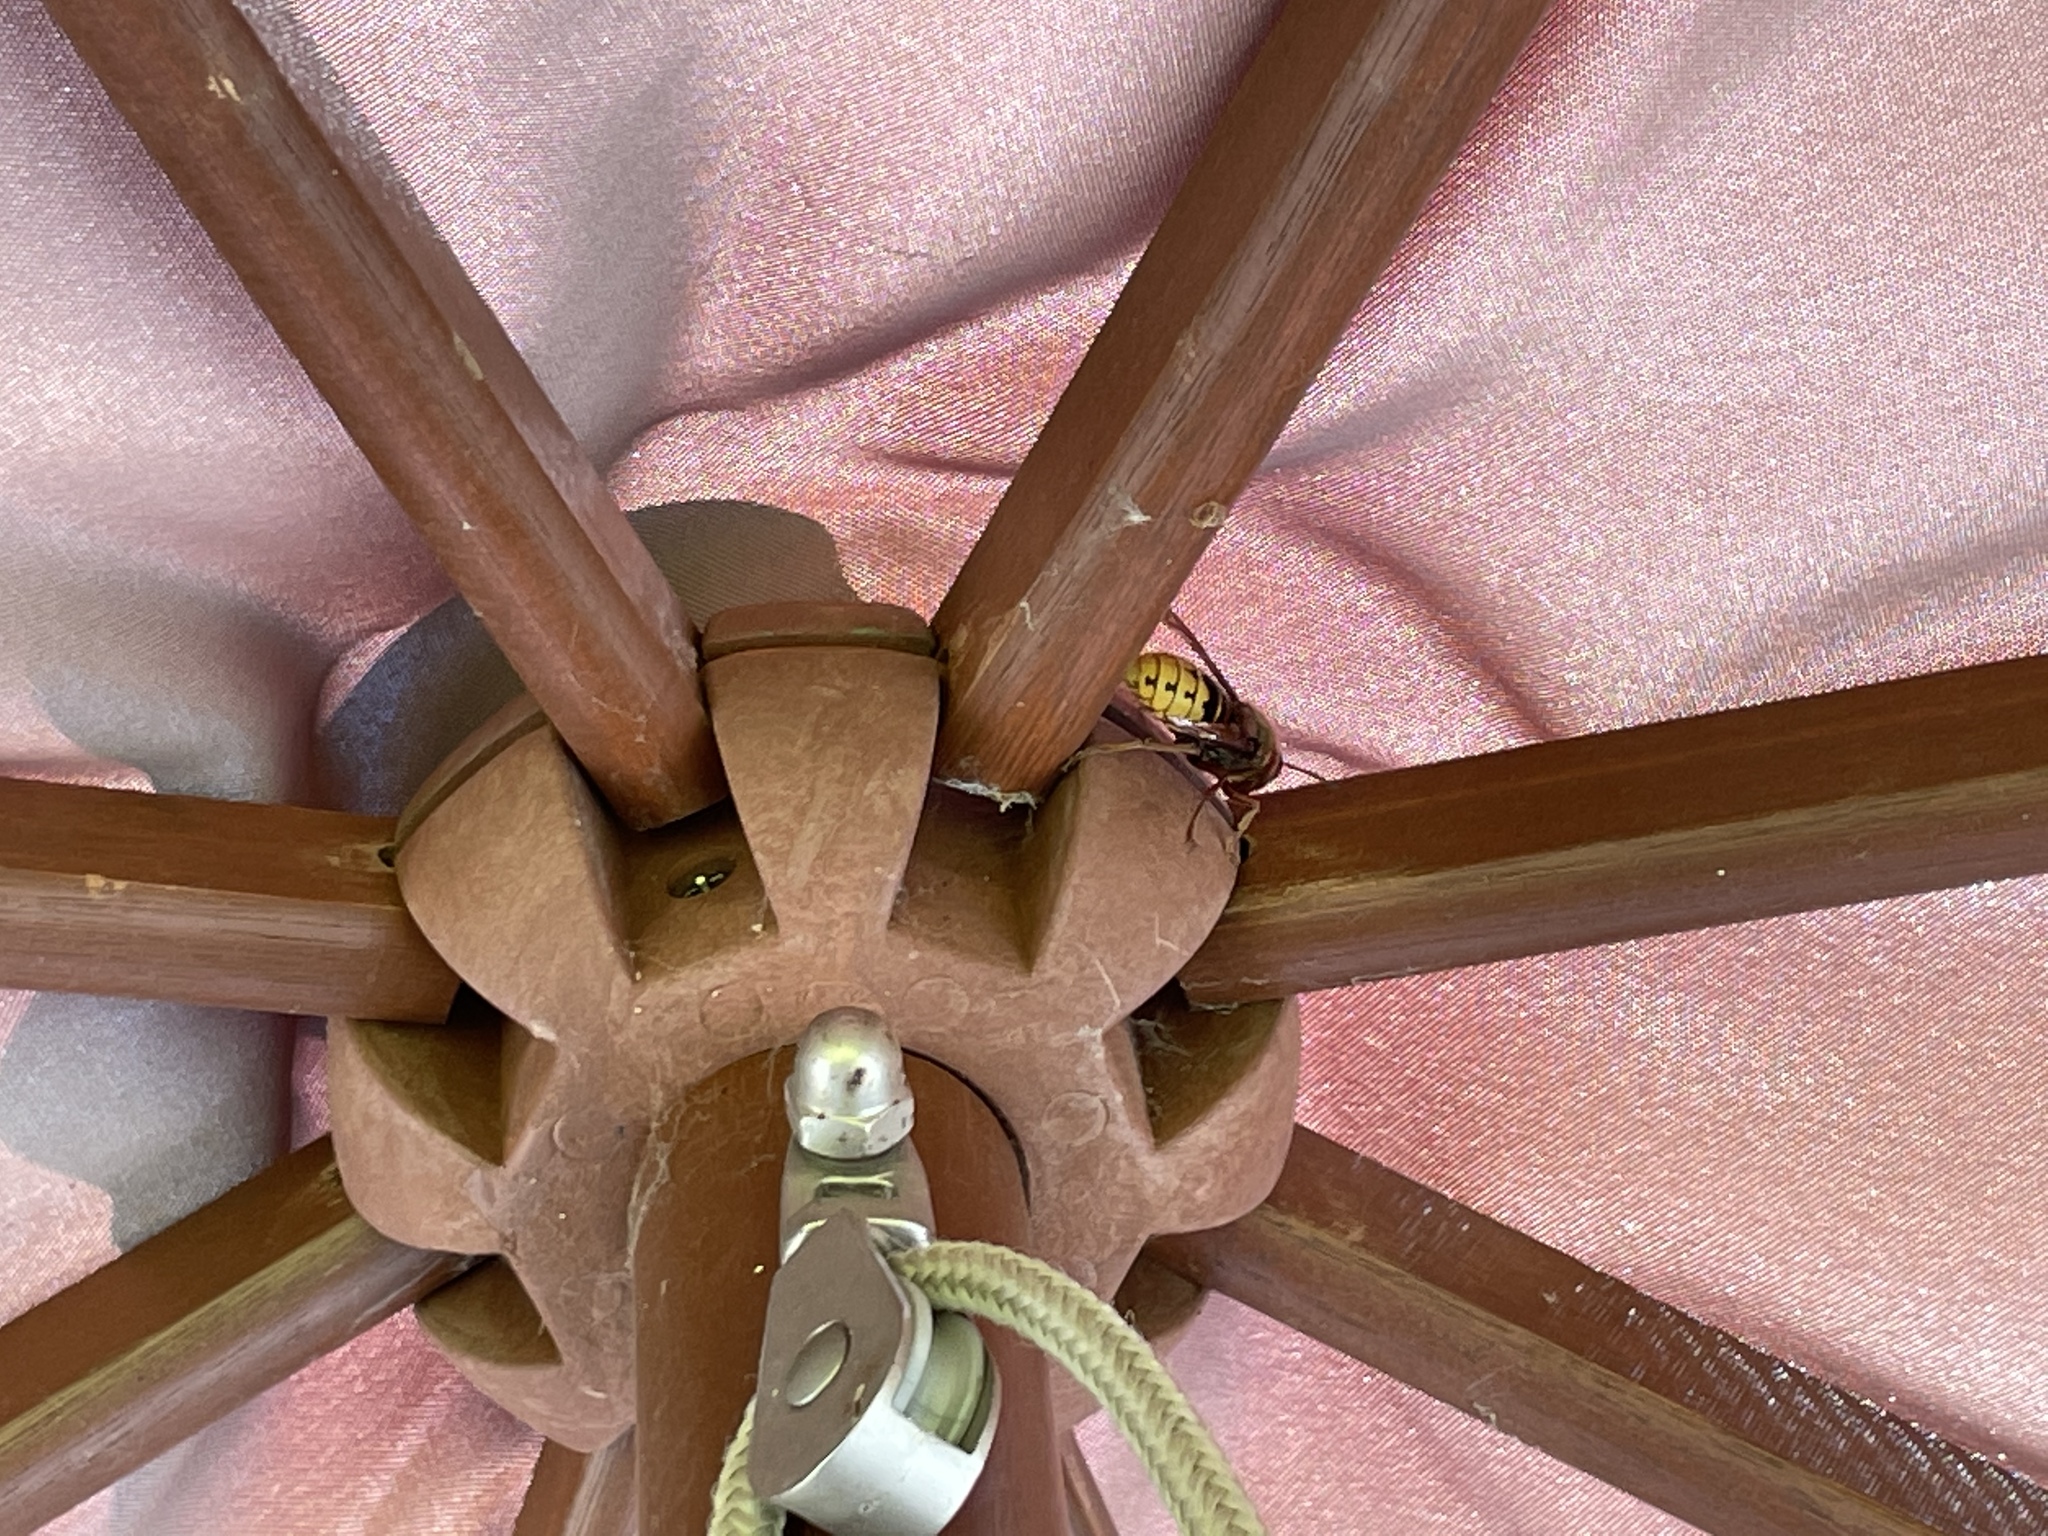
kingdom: Animalia
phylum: Arthropoda
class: Insecta
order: Hymenoptera
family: Vespidae
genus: Vespa
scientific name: Vespa crabro
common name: Hornet
